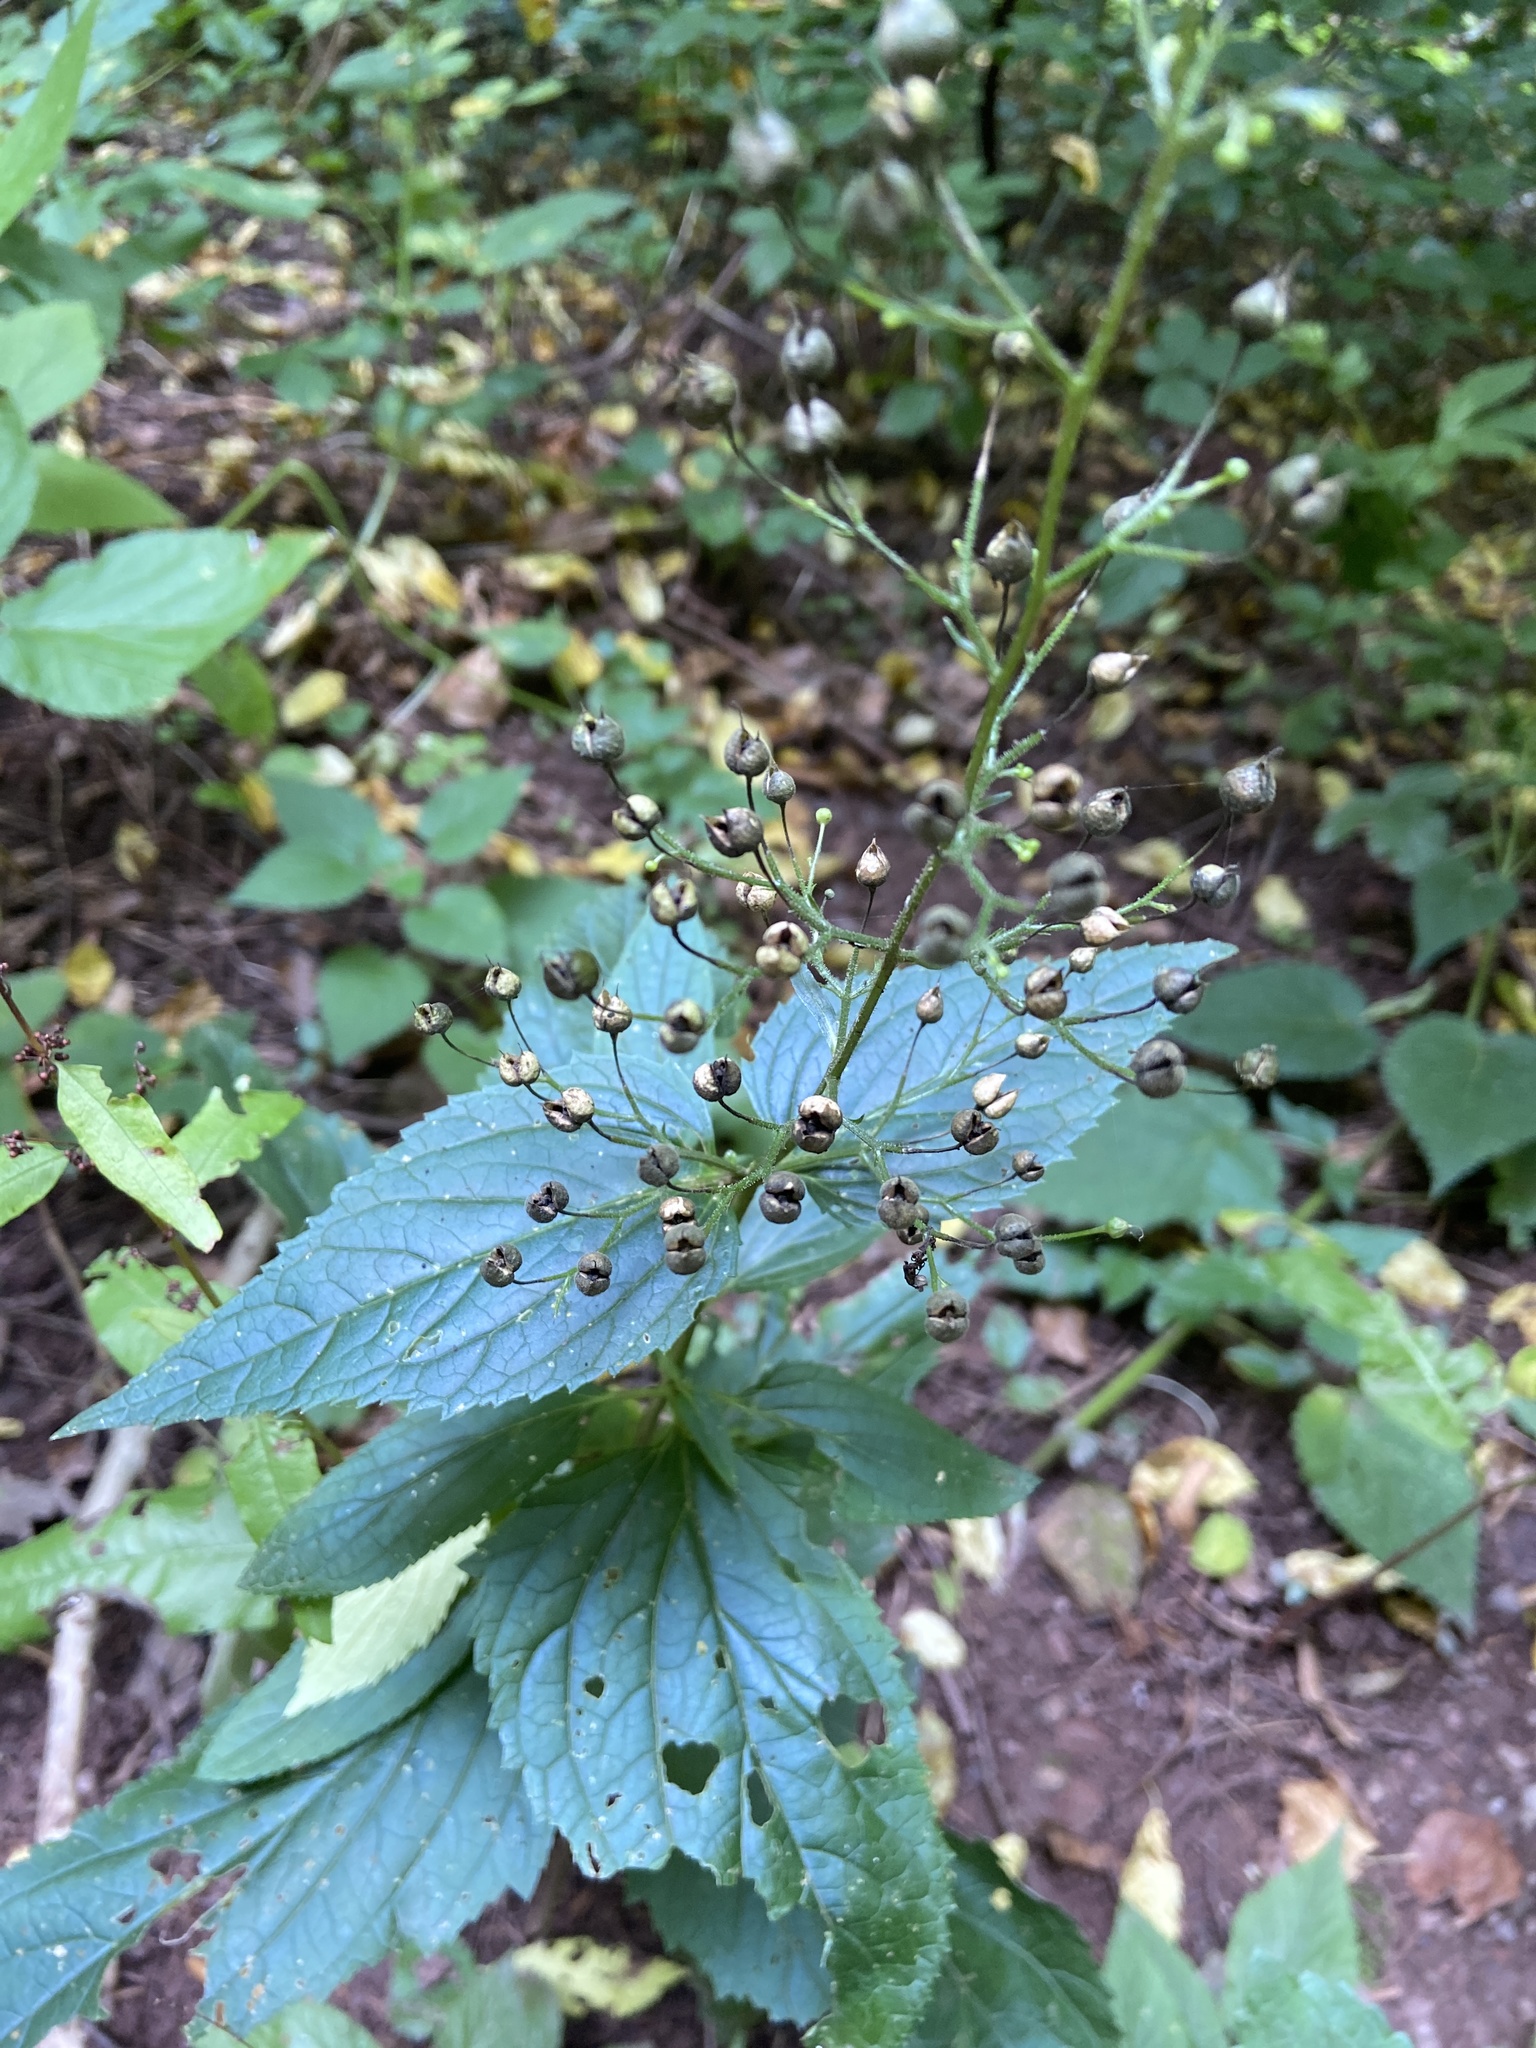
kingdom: Plantae
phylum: Tracheophyta
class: Magnoliopsida
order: Lamiales
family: Scrophulariaceae
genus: Scrophularia
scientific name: Scrophularia nodosa
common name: Common figwort
